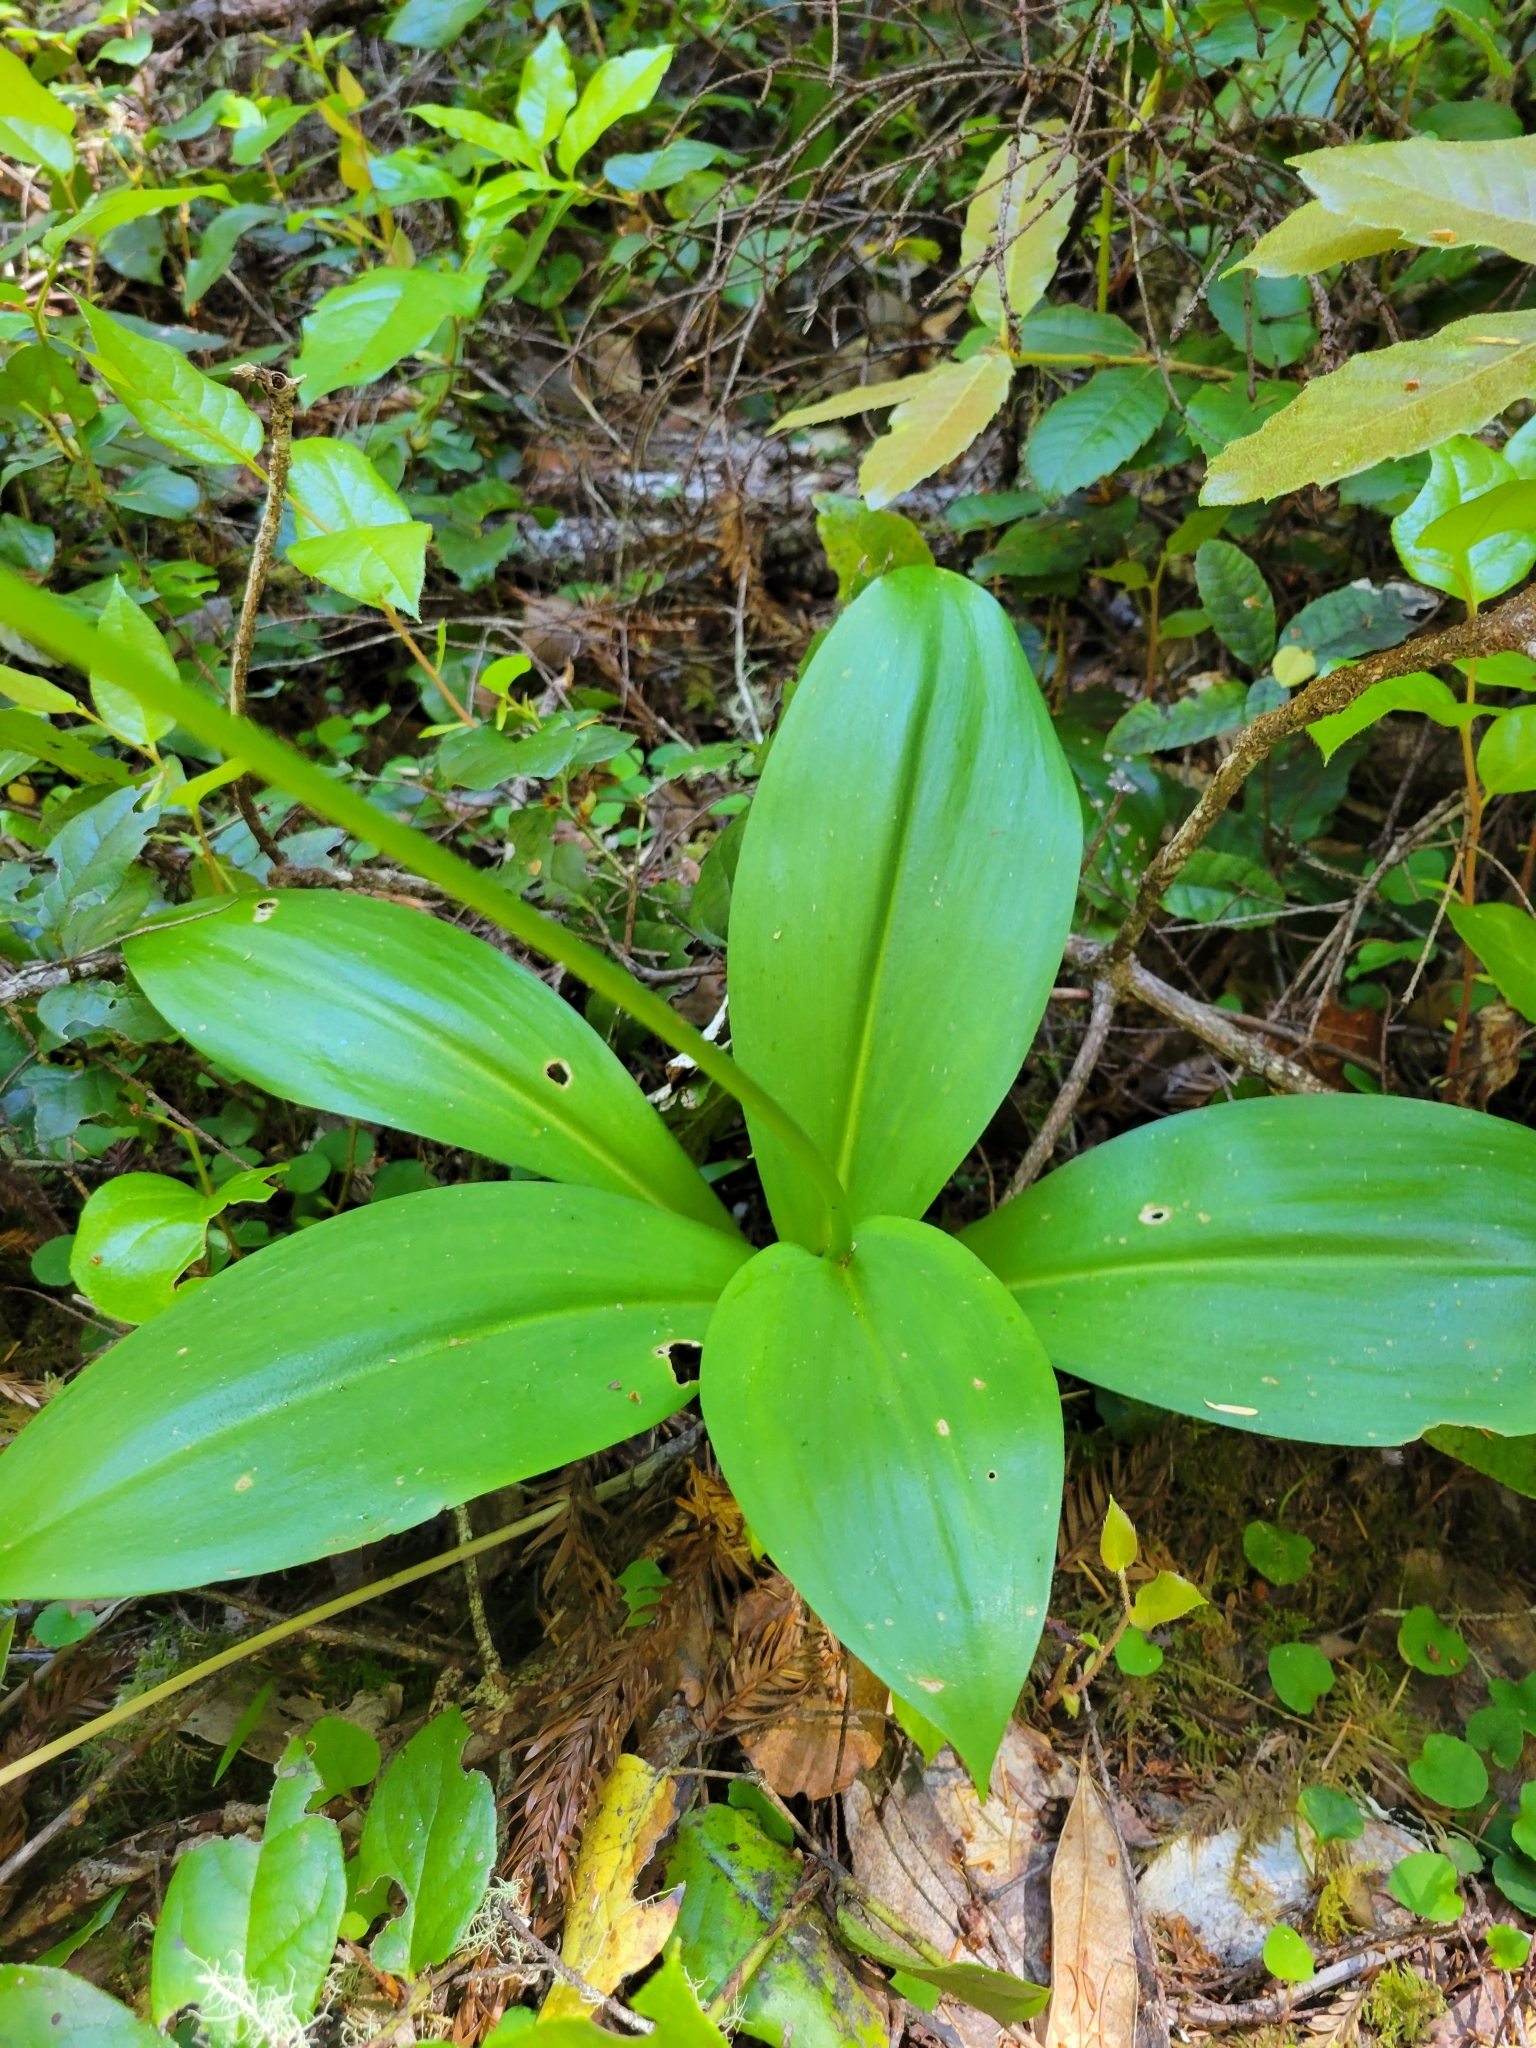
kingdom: Plantae
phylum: Tracheophyta
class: Liliopsida
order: Liliales
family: Liliaceae
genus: Clintonia
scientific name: Clintonia andrewsiana
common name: Red clintonia
